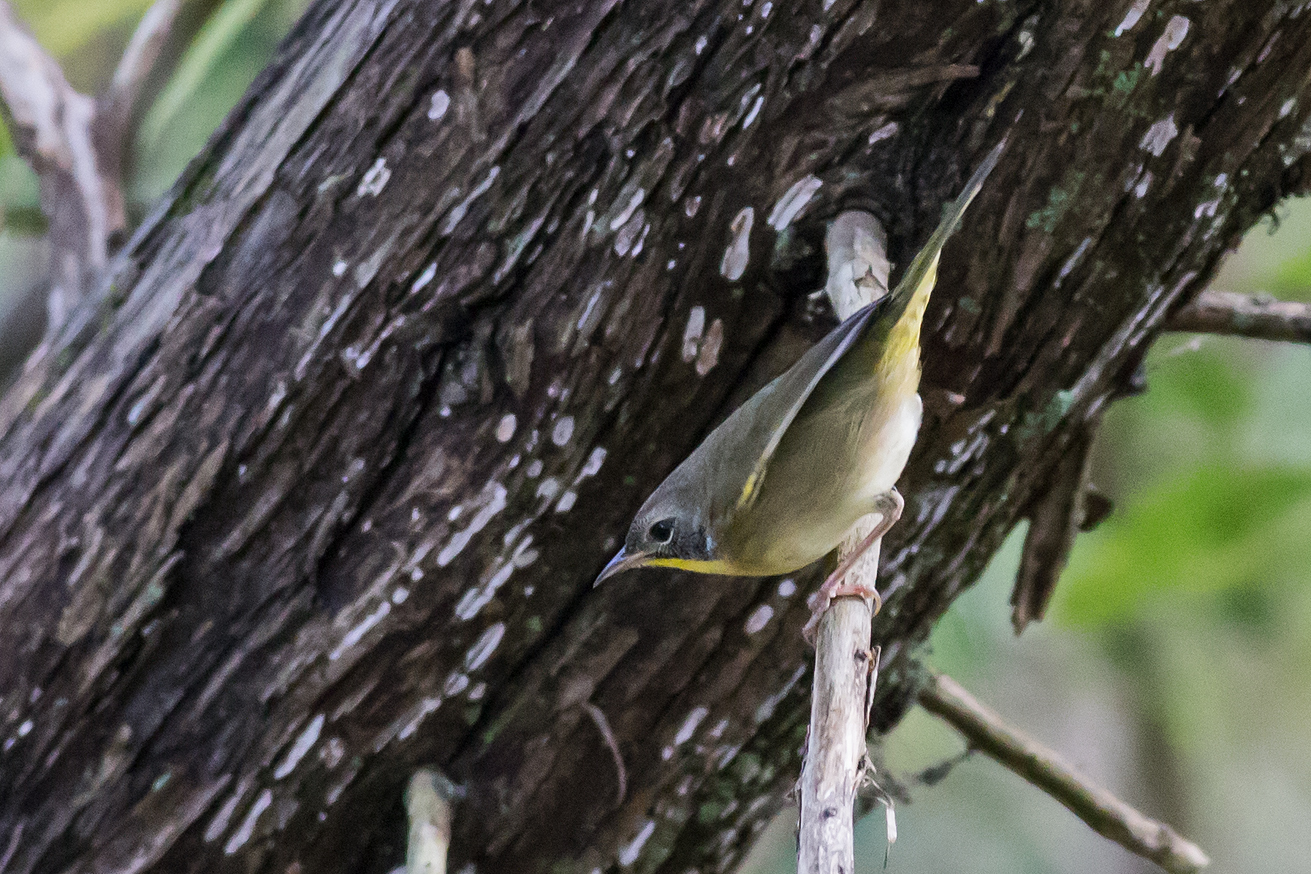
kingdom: Animalia
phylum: Chordata
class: Aves
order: Passeriformes
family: Parulidae
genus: Geothlypis
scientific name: Geothlypis trichas
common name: Common yellowthroat
